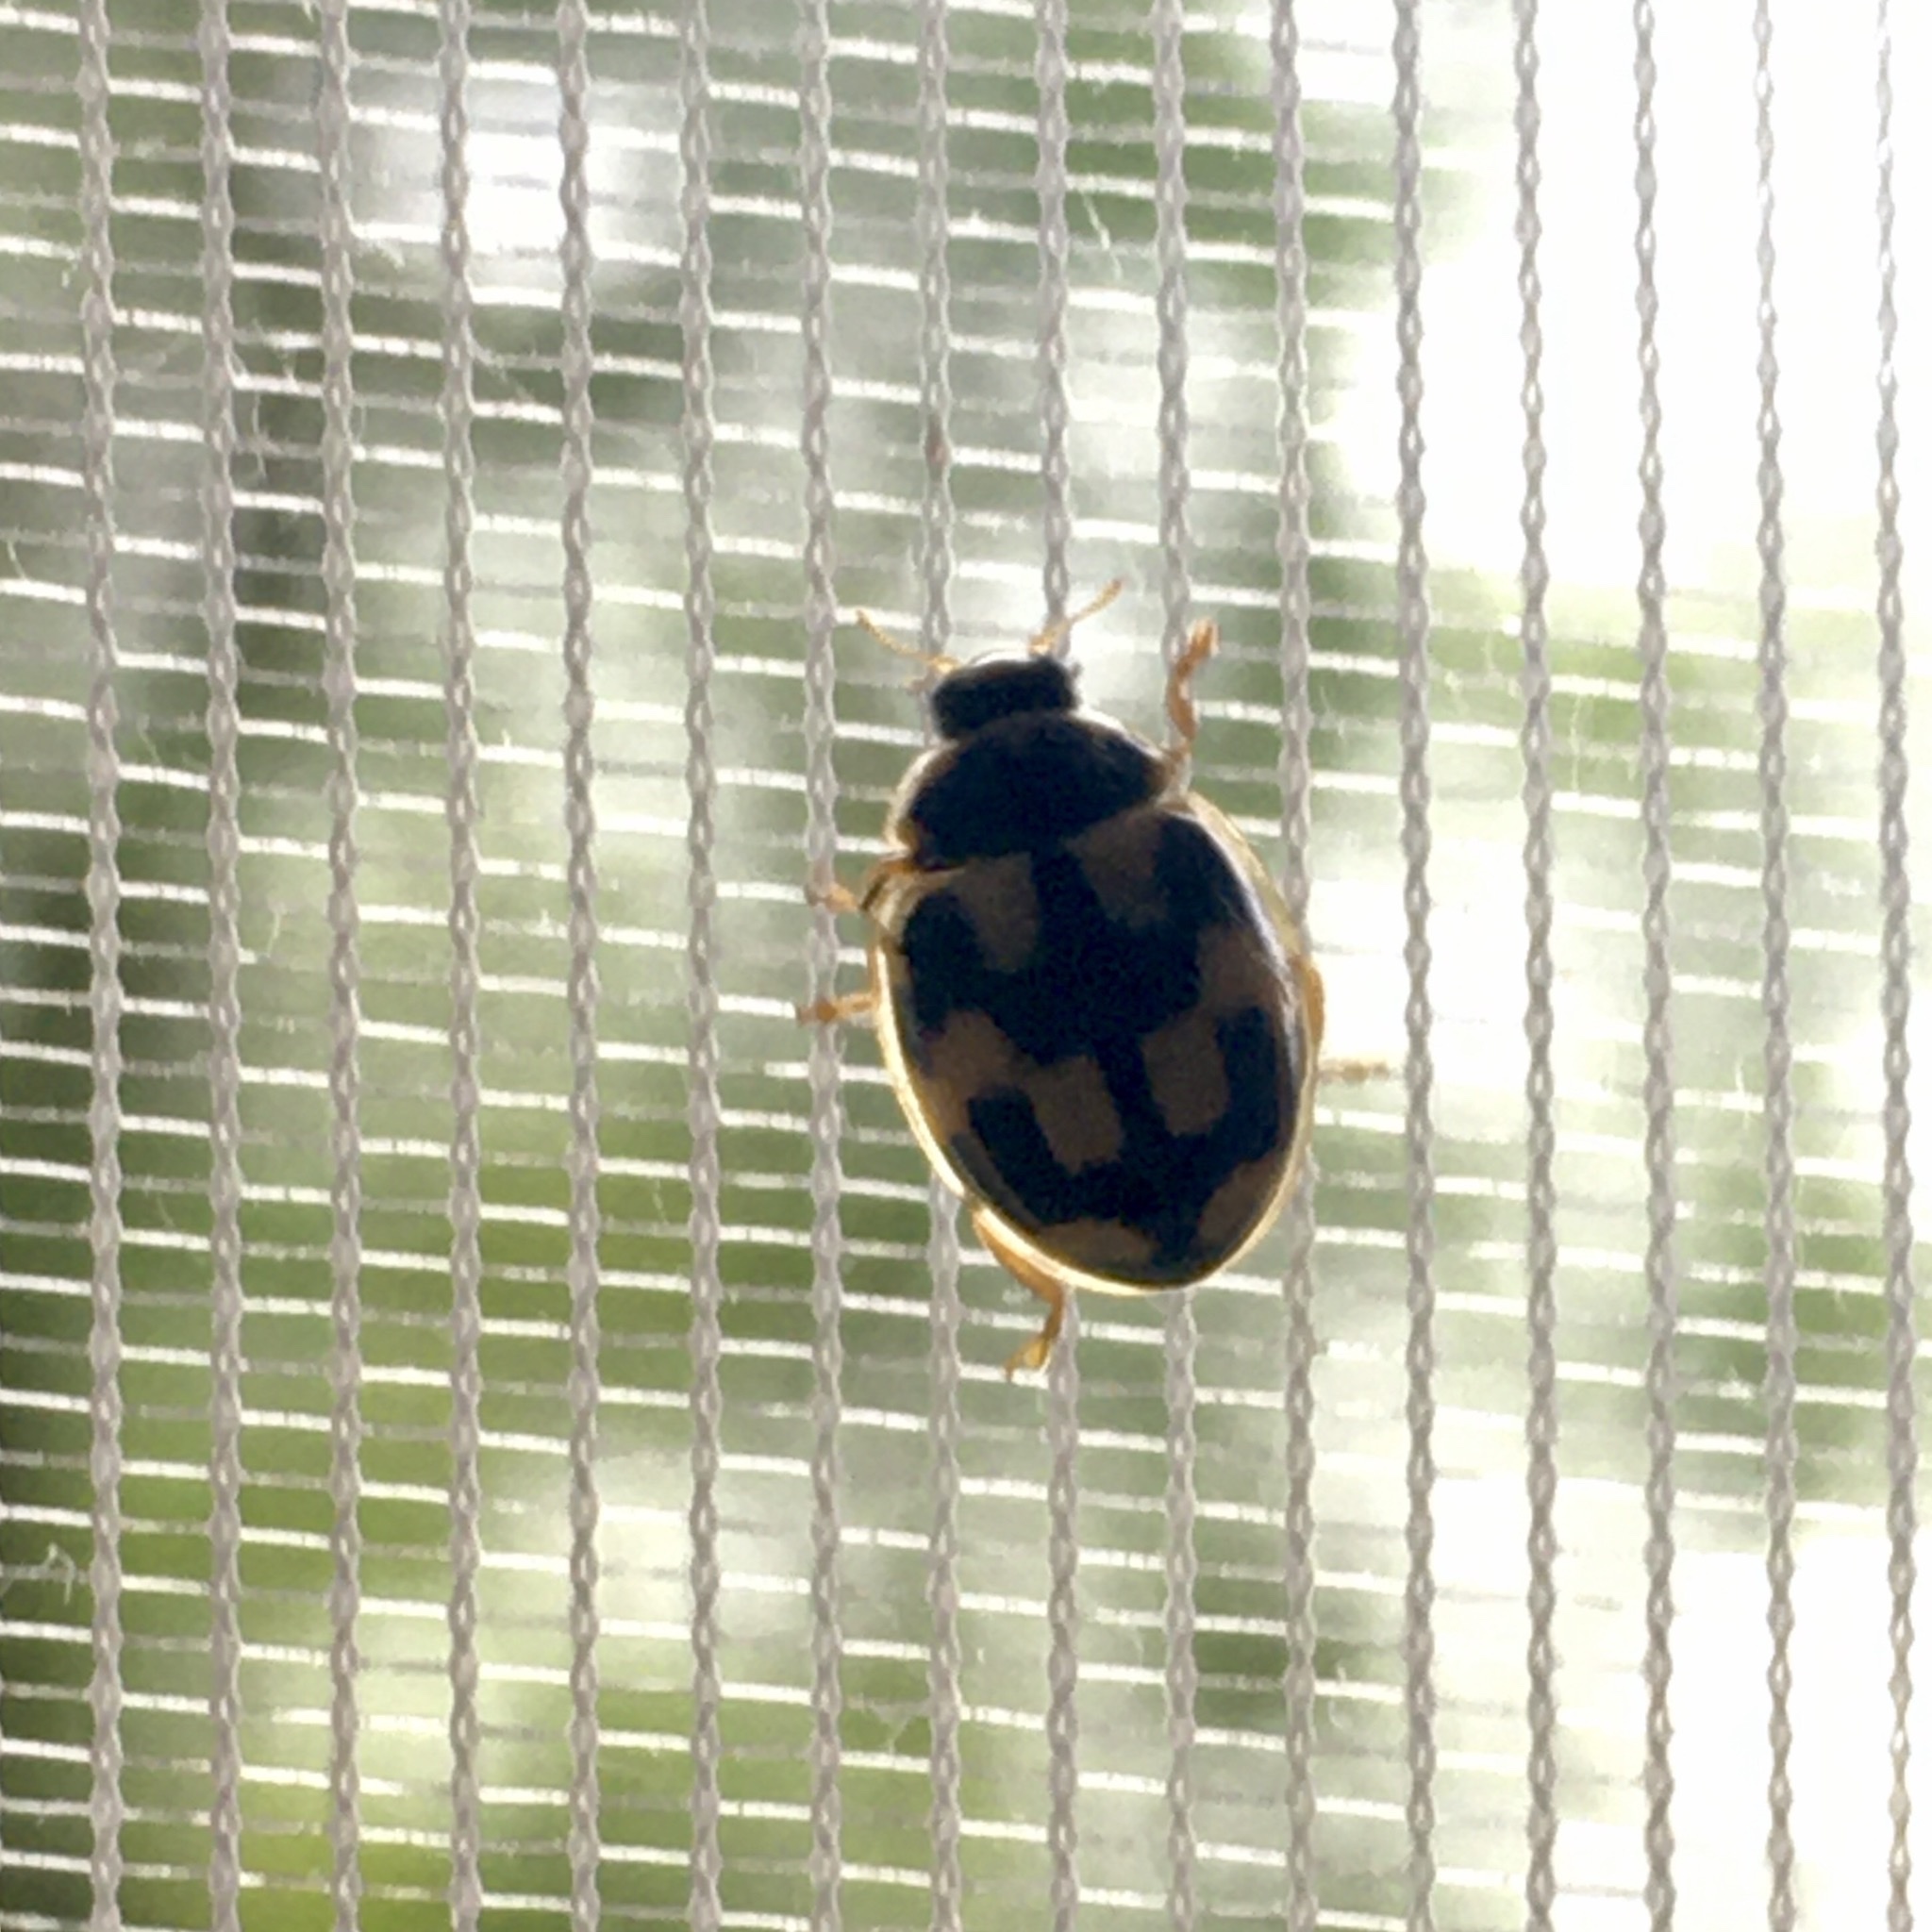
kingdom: Animalia
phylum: Arthropoda
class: Insecta
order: Coleoptera
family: Coccinellidae
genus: Propylaea
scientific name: Propylaea quatuordecimpunctata
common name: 14-spotted ladybird beetle
